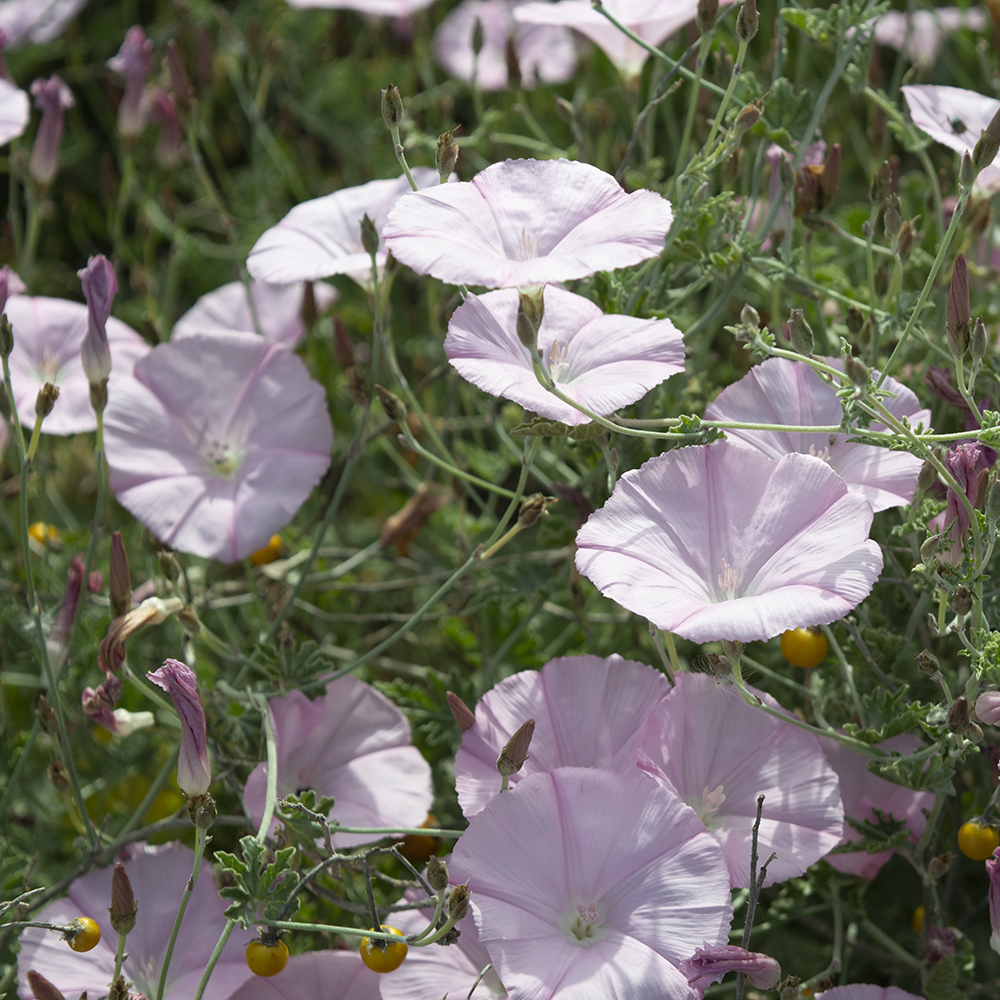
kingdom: Plantae
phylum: Tracheophyta
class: Magnoliopsida
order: Solanales
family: Convolvulaceae
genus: Convolvulus
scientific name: Convolvulus elegantissimus
